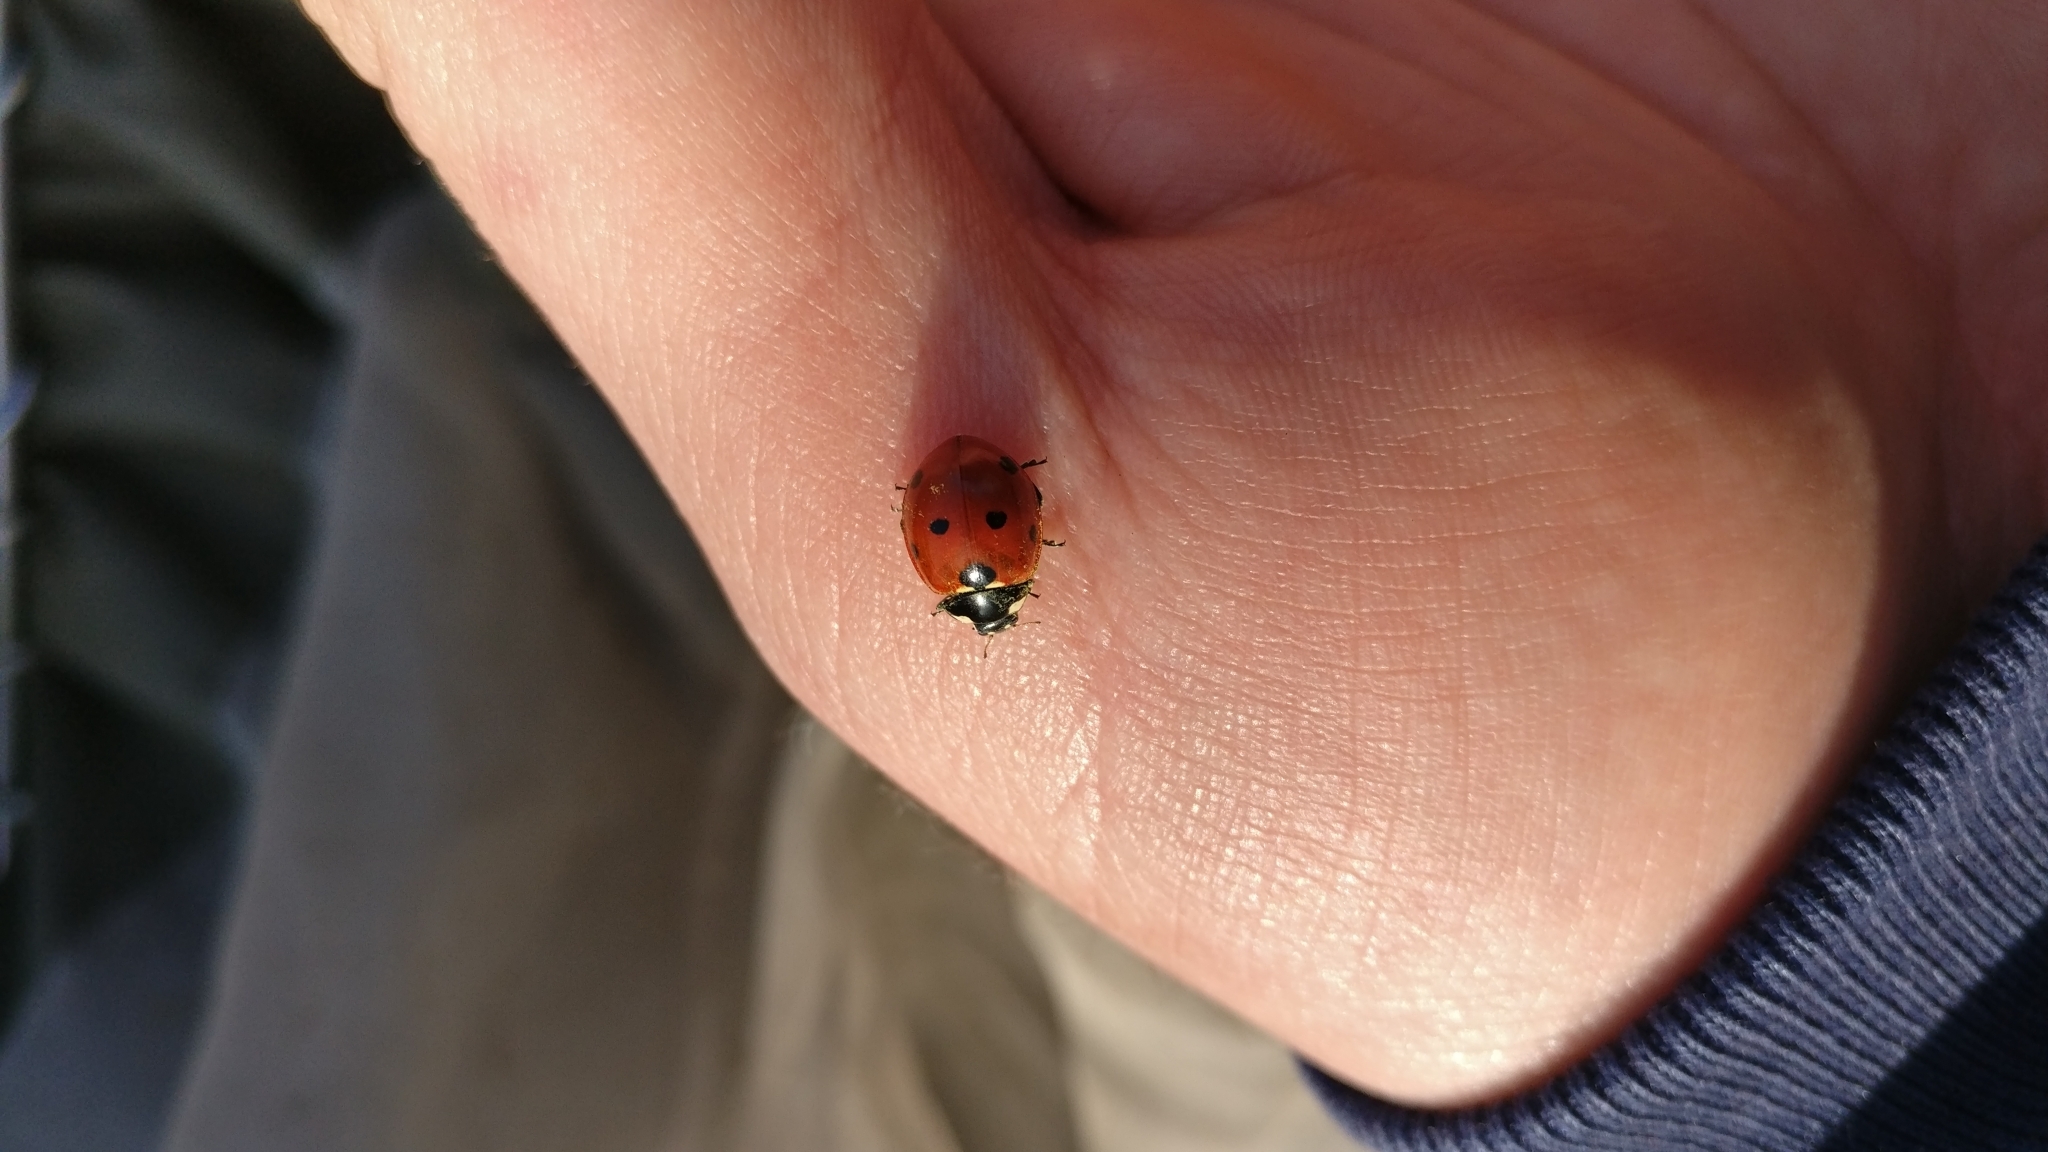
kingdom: Animalia
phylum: Arthropoda
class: Insecta
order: Coleoptera
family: Coccinellidae
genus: Coccinella
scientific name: Coccinella septempunctata
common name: Sevenspotted lady beetle
